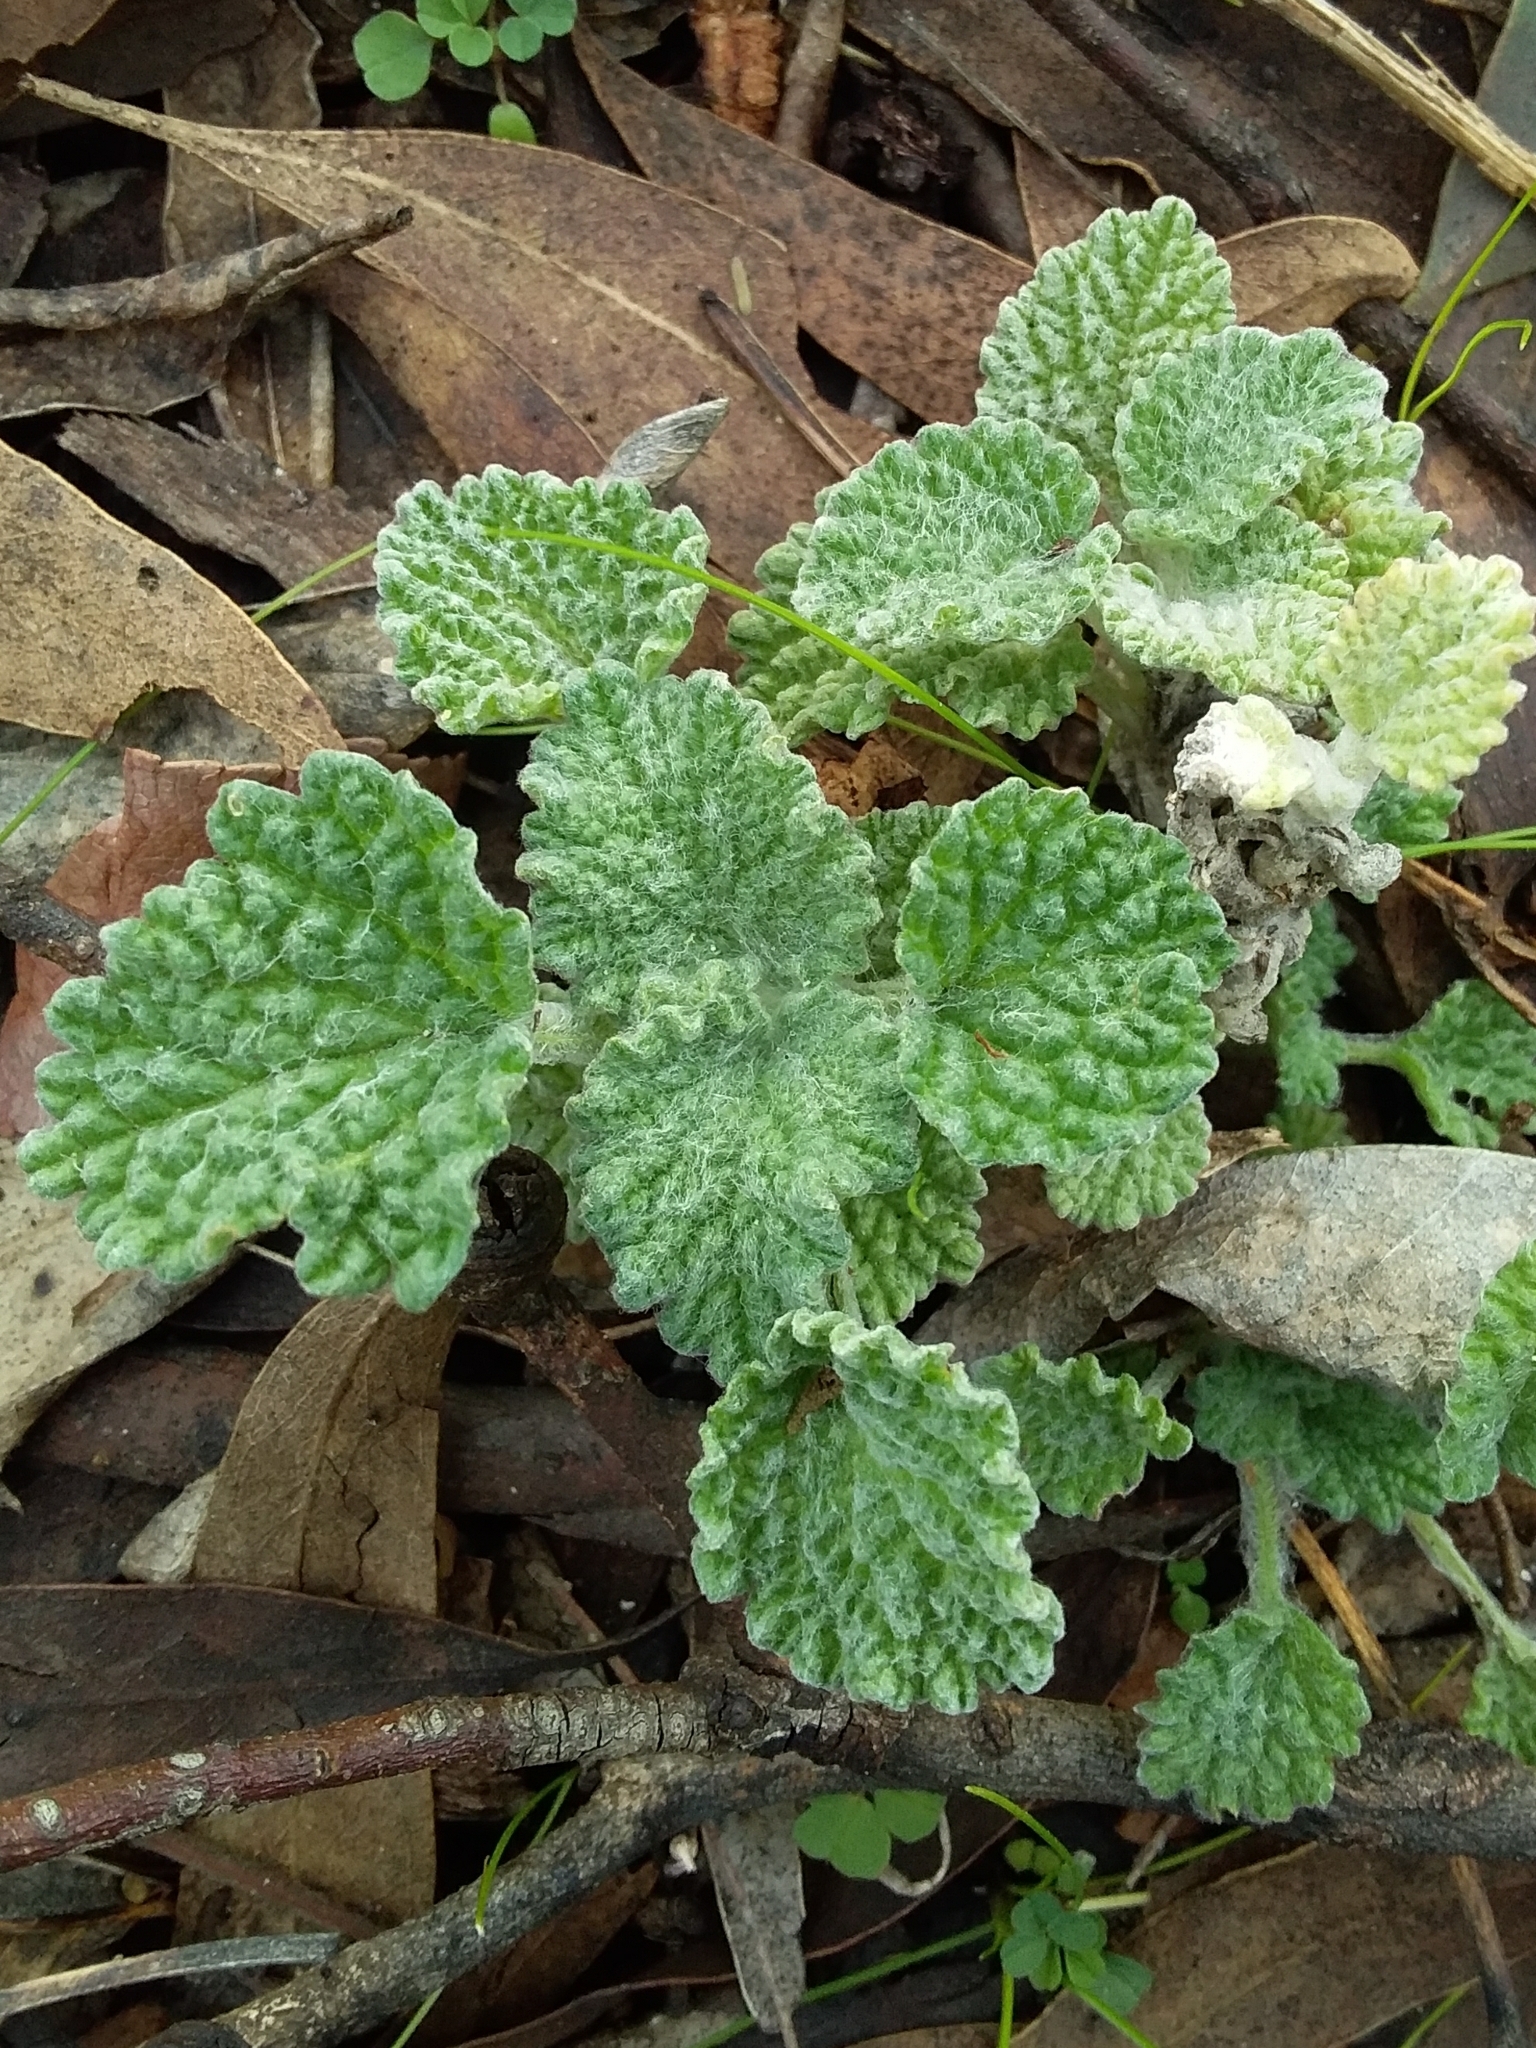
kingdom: Plantae
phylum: Tracheophyta
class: Magnoliopsida
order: Lamiales
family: Lamiaceae
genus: Marrubium
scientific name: Marrubium vulgare
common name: Horehound
